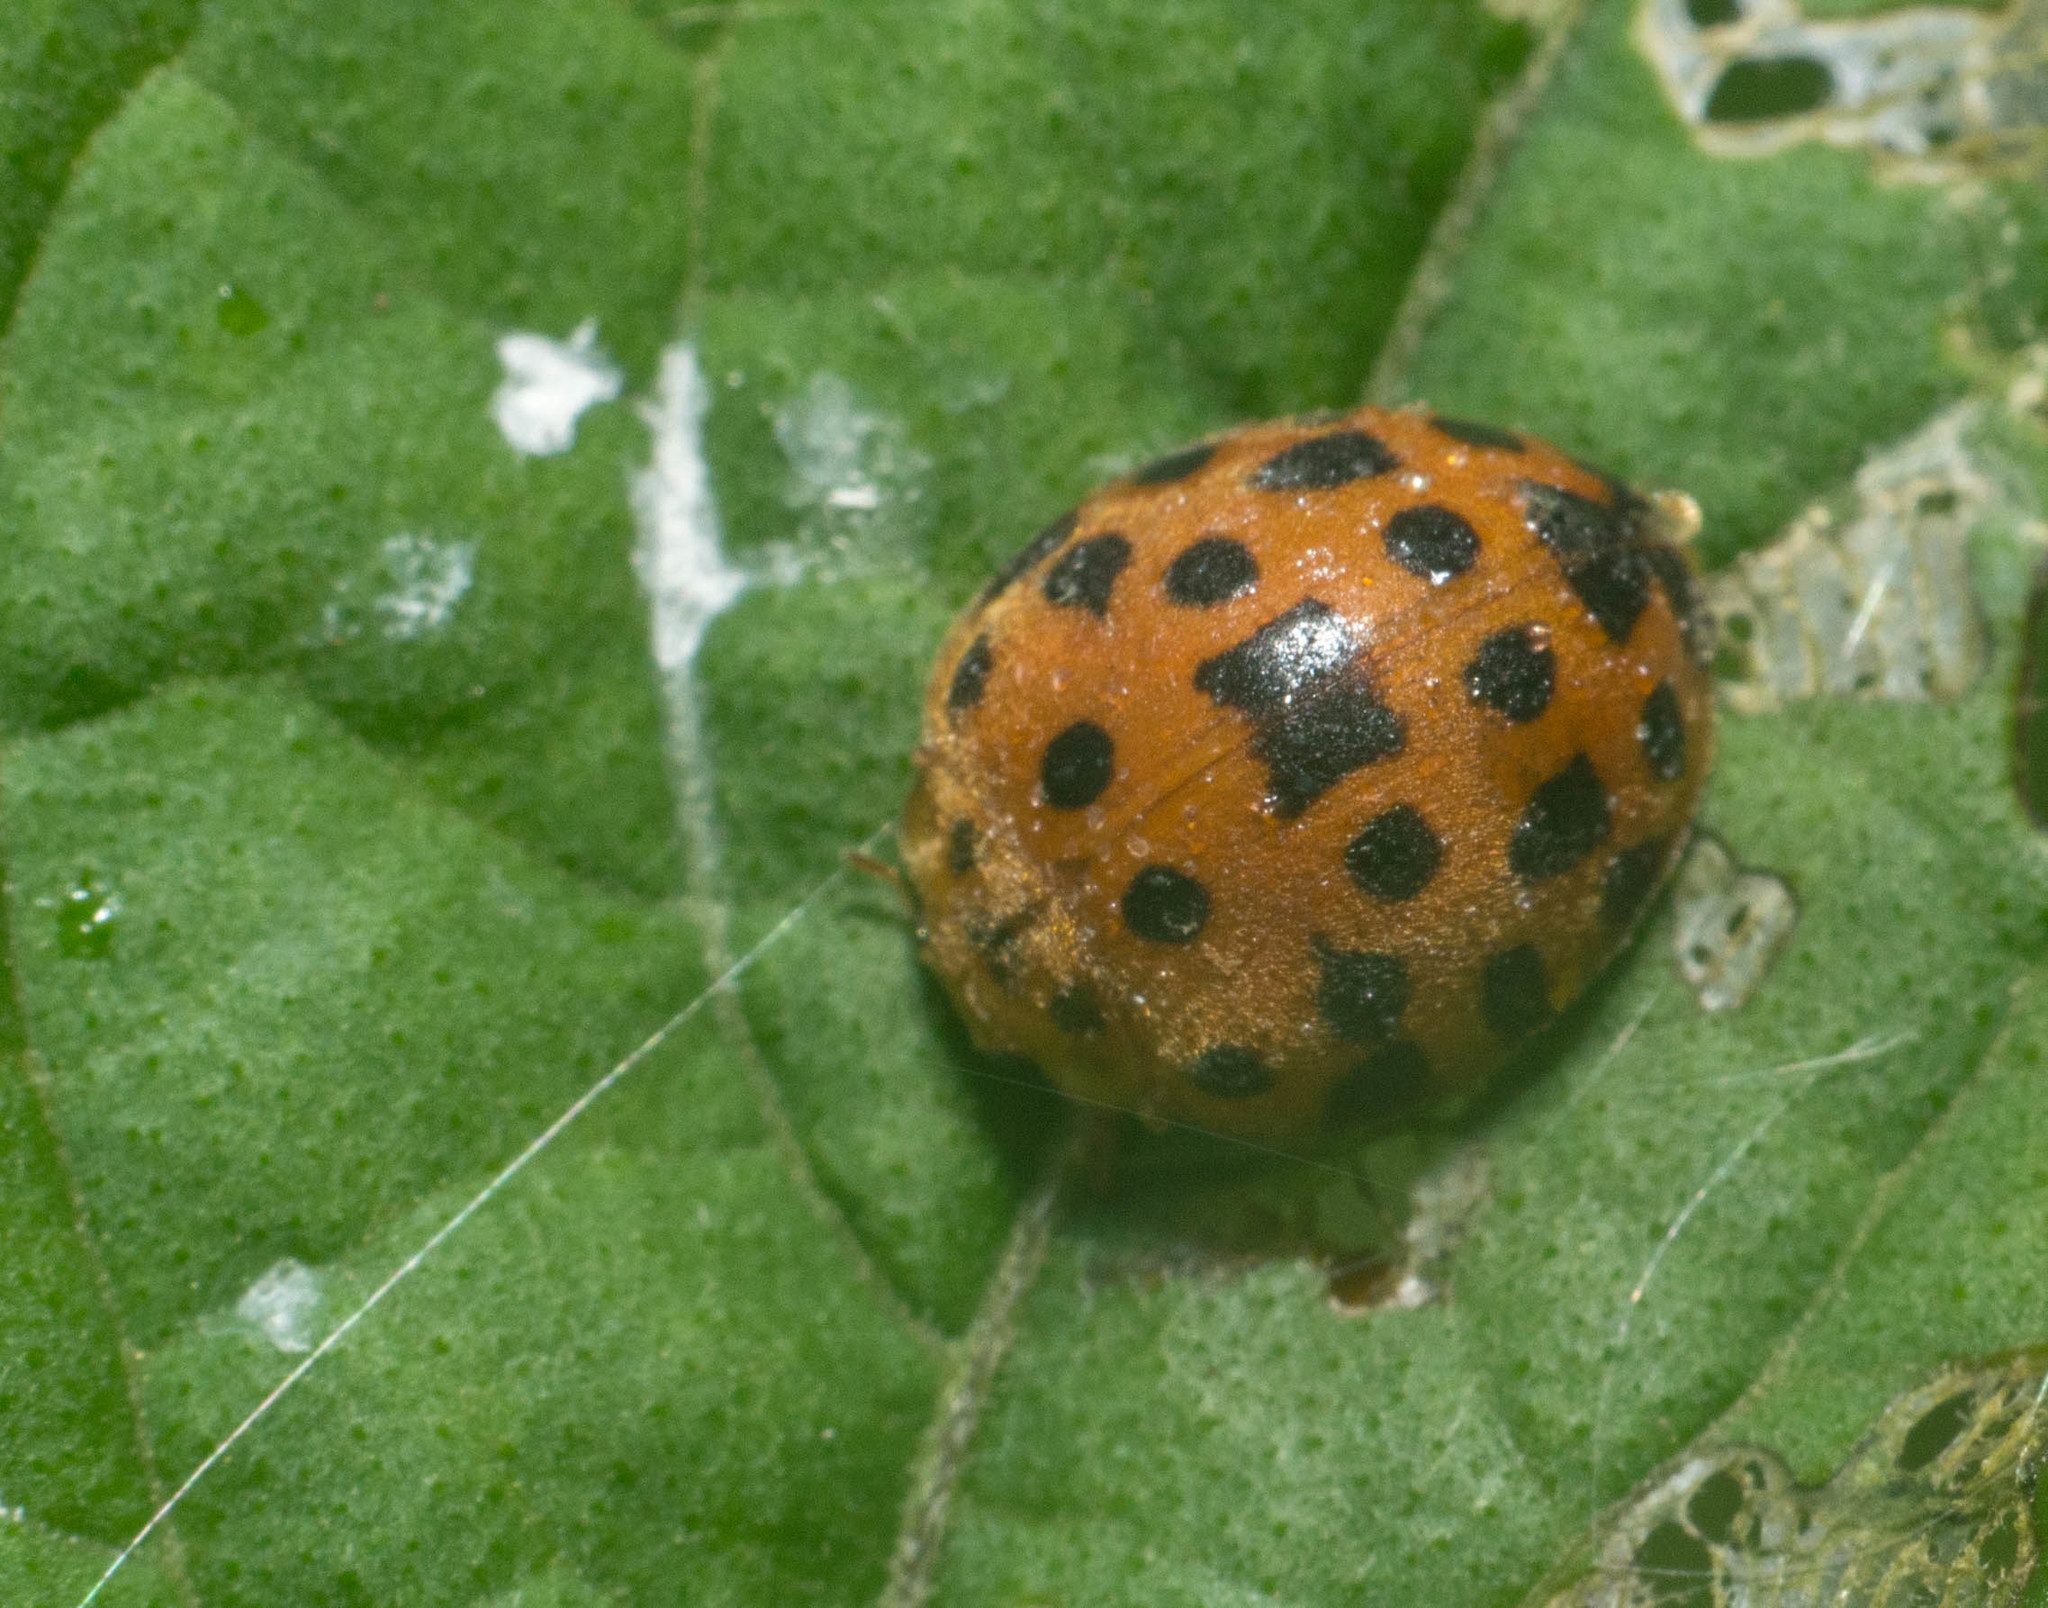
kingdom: Animalia
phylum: Arthropoda
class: Insecta
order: Coleoptera
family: Coccinellidae
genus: Henosepilachna
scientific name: Henosepilachna vigintioctopunctata
